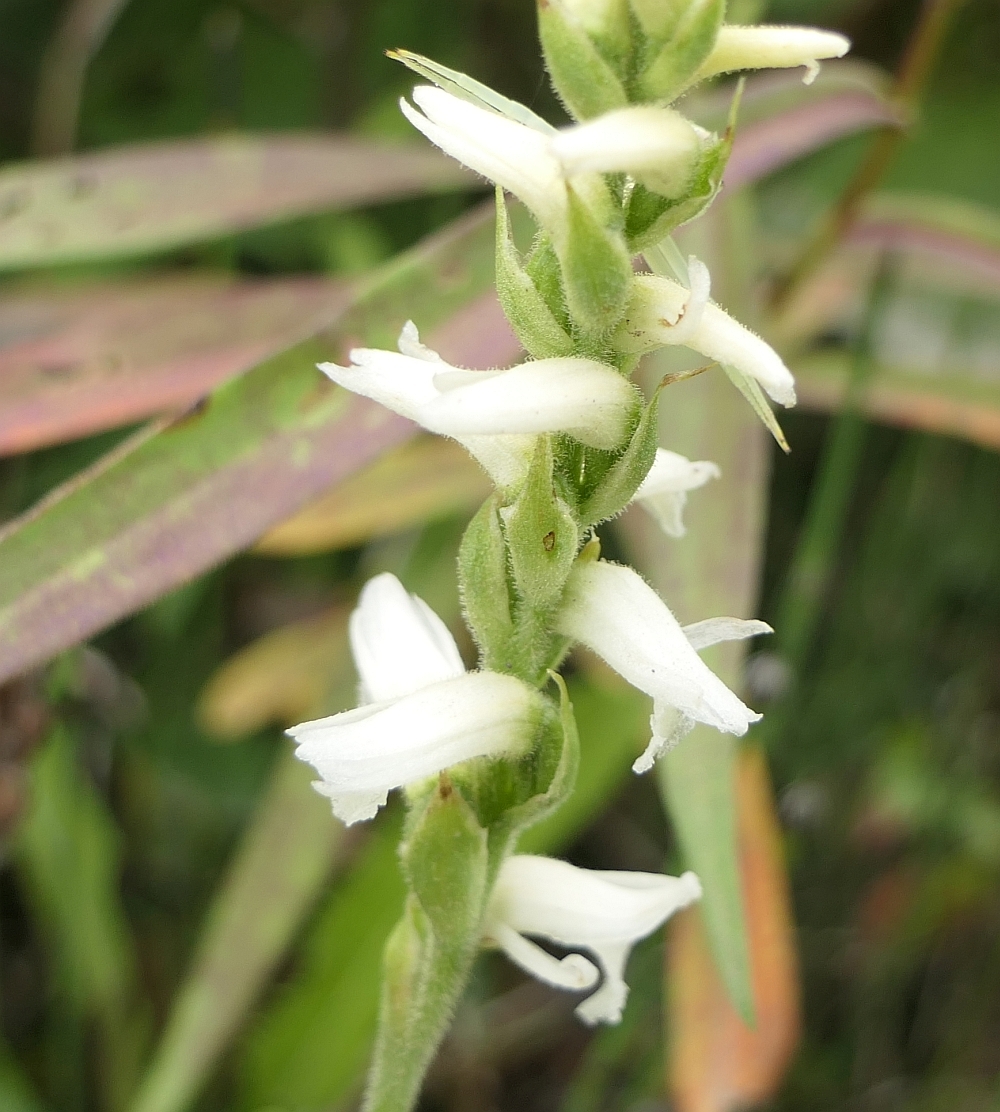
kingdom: Plantae
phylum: Tracheophyta
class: Liliopsida
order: Asparagales
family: Orchidaceae
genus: Spiranthes
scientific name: Spiranthes incurva
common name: Sphinx ladies'-tresses
